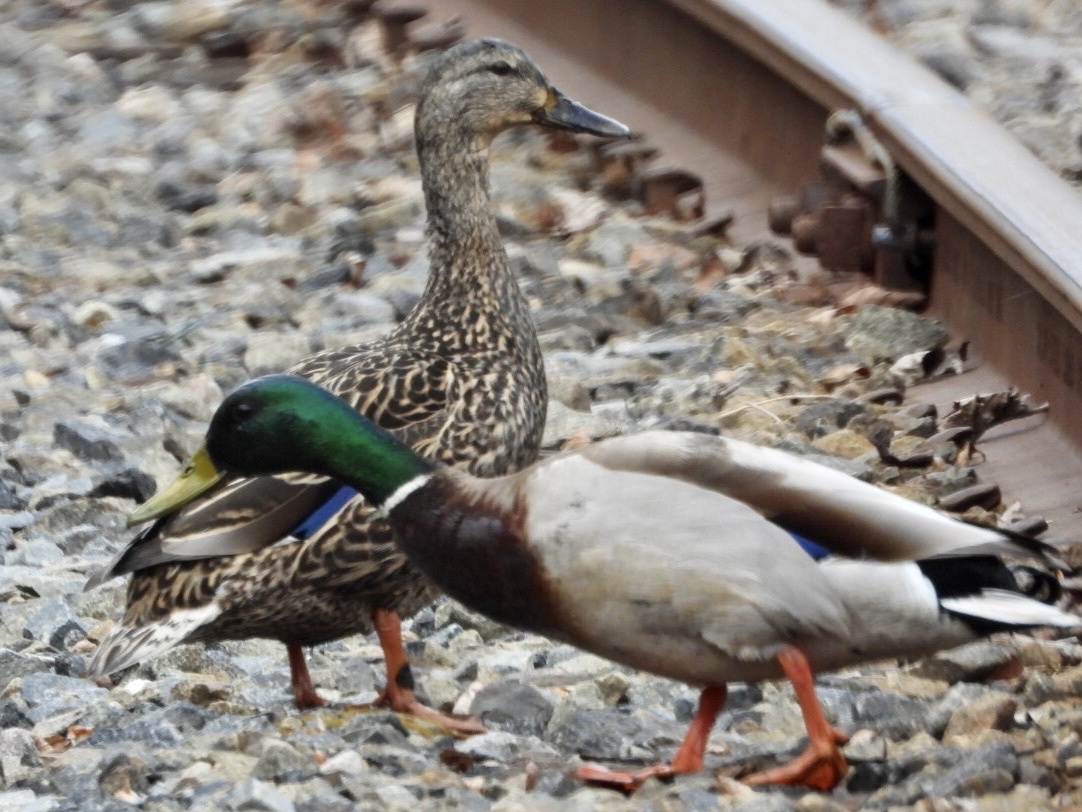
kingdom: Animalia
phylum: Chordata
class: Aves
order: Anseriformes
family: Anatidae
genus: Anas
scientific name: Anas platyrhynchos
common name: Mallard
